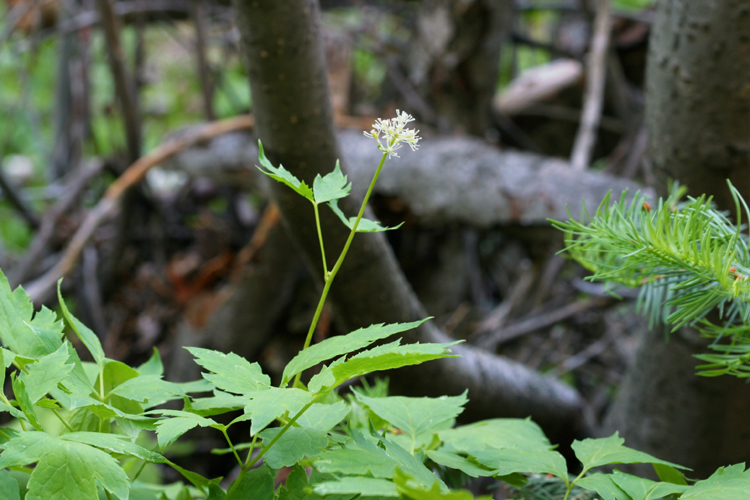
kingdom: Plantae
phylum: Tracheophyta
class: Magnoliopsida
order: Ranunculales
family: Ranunculaceae
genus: Actaea
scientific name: Actaea rubra
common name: Red baneberry
